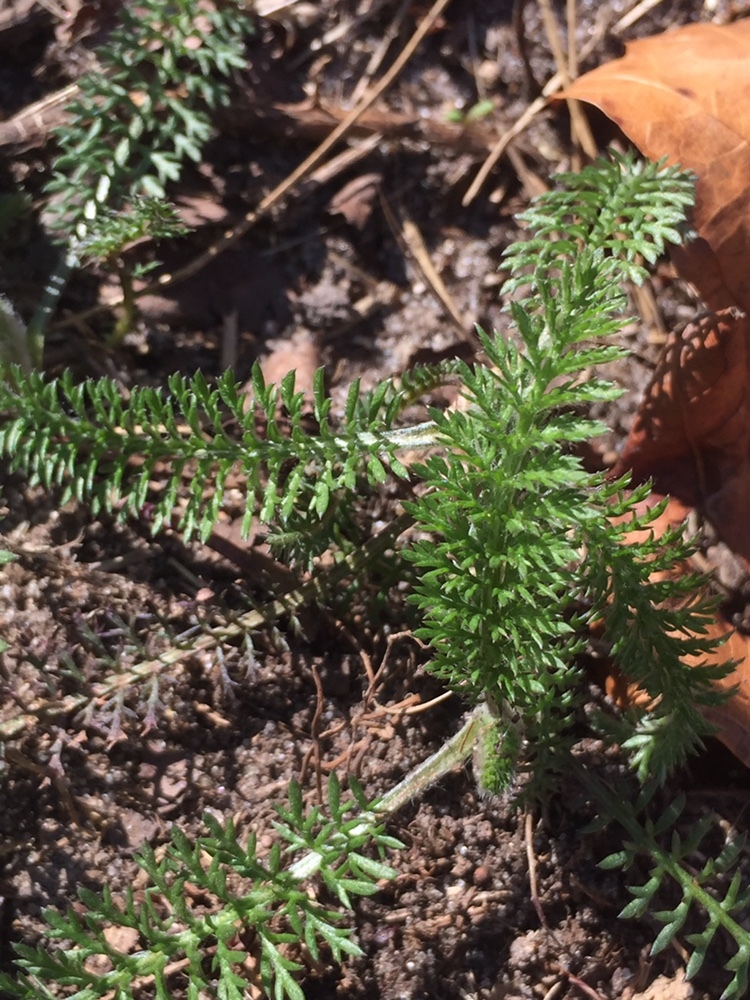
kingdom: Plantae
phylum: Tracheophyta
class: Magnoliopsida
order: Asterales
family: Asteraceae
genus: Achillea
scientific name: Achillea millefolium
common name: Yarrow
